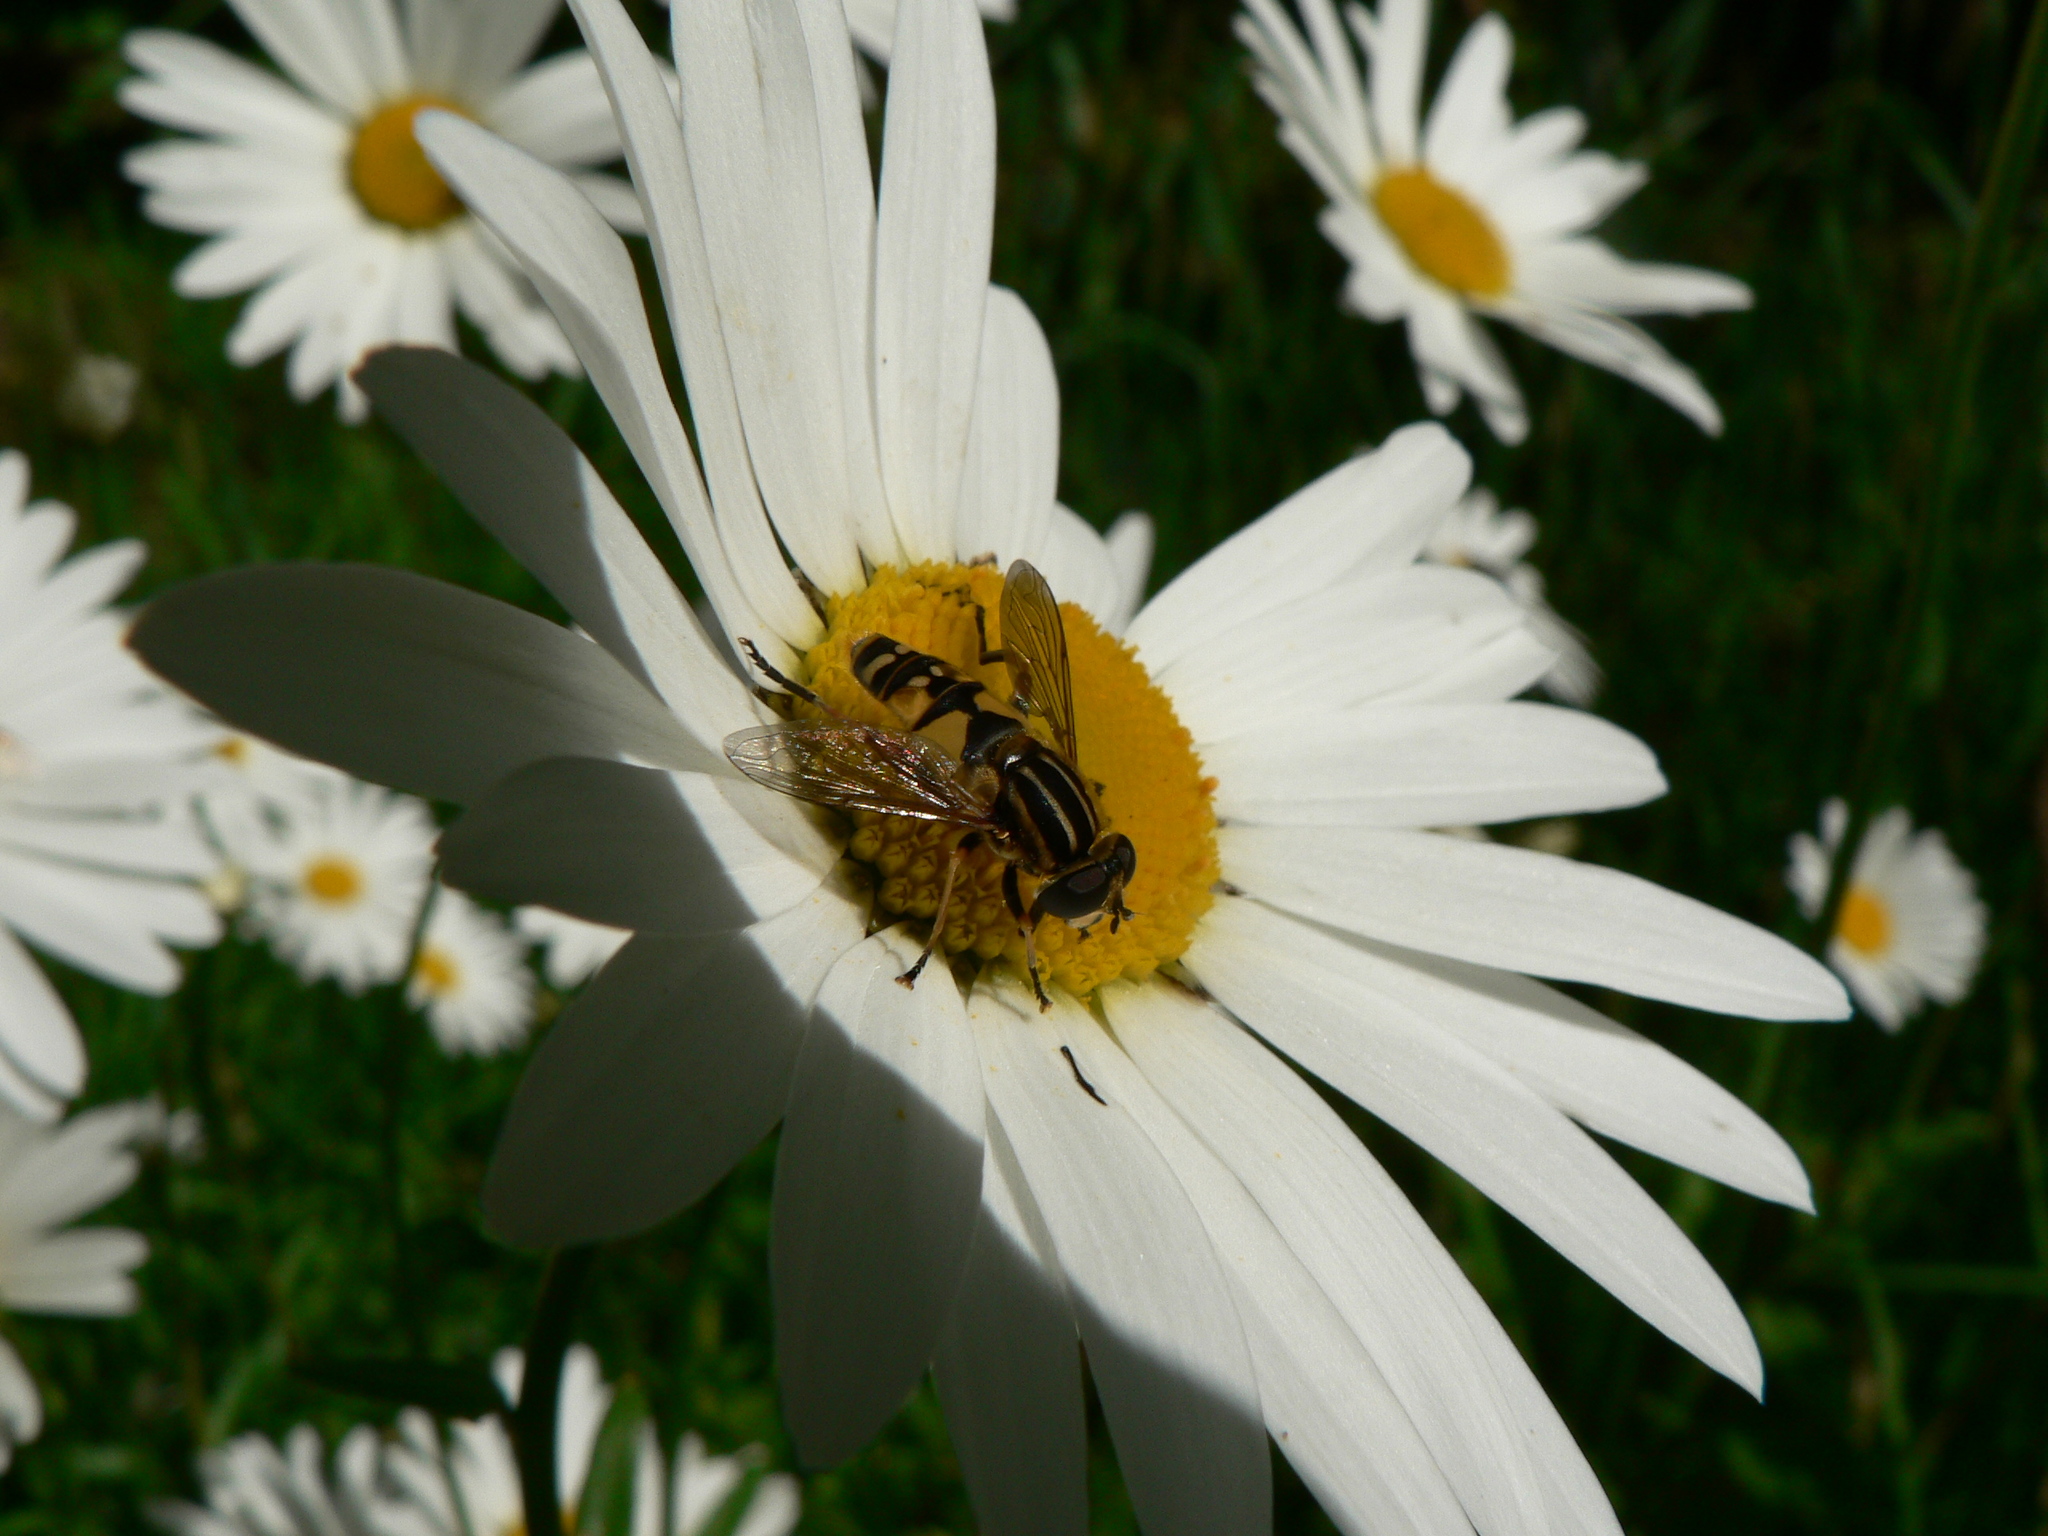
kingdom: Animalia
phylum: Arthropoda
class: Insecta
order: Diptera
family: Syrphidae
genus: Helophilus
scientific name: Helophilus pendulus
